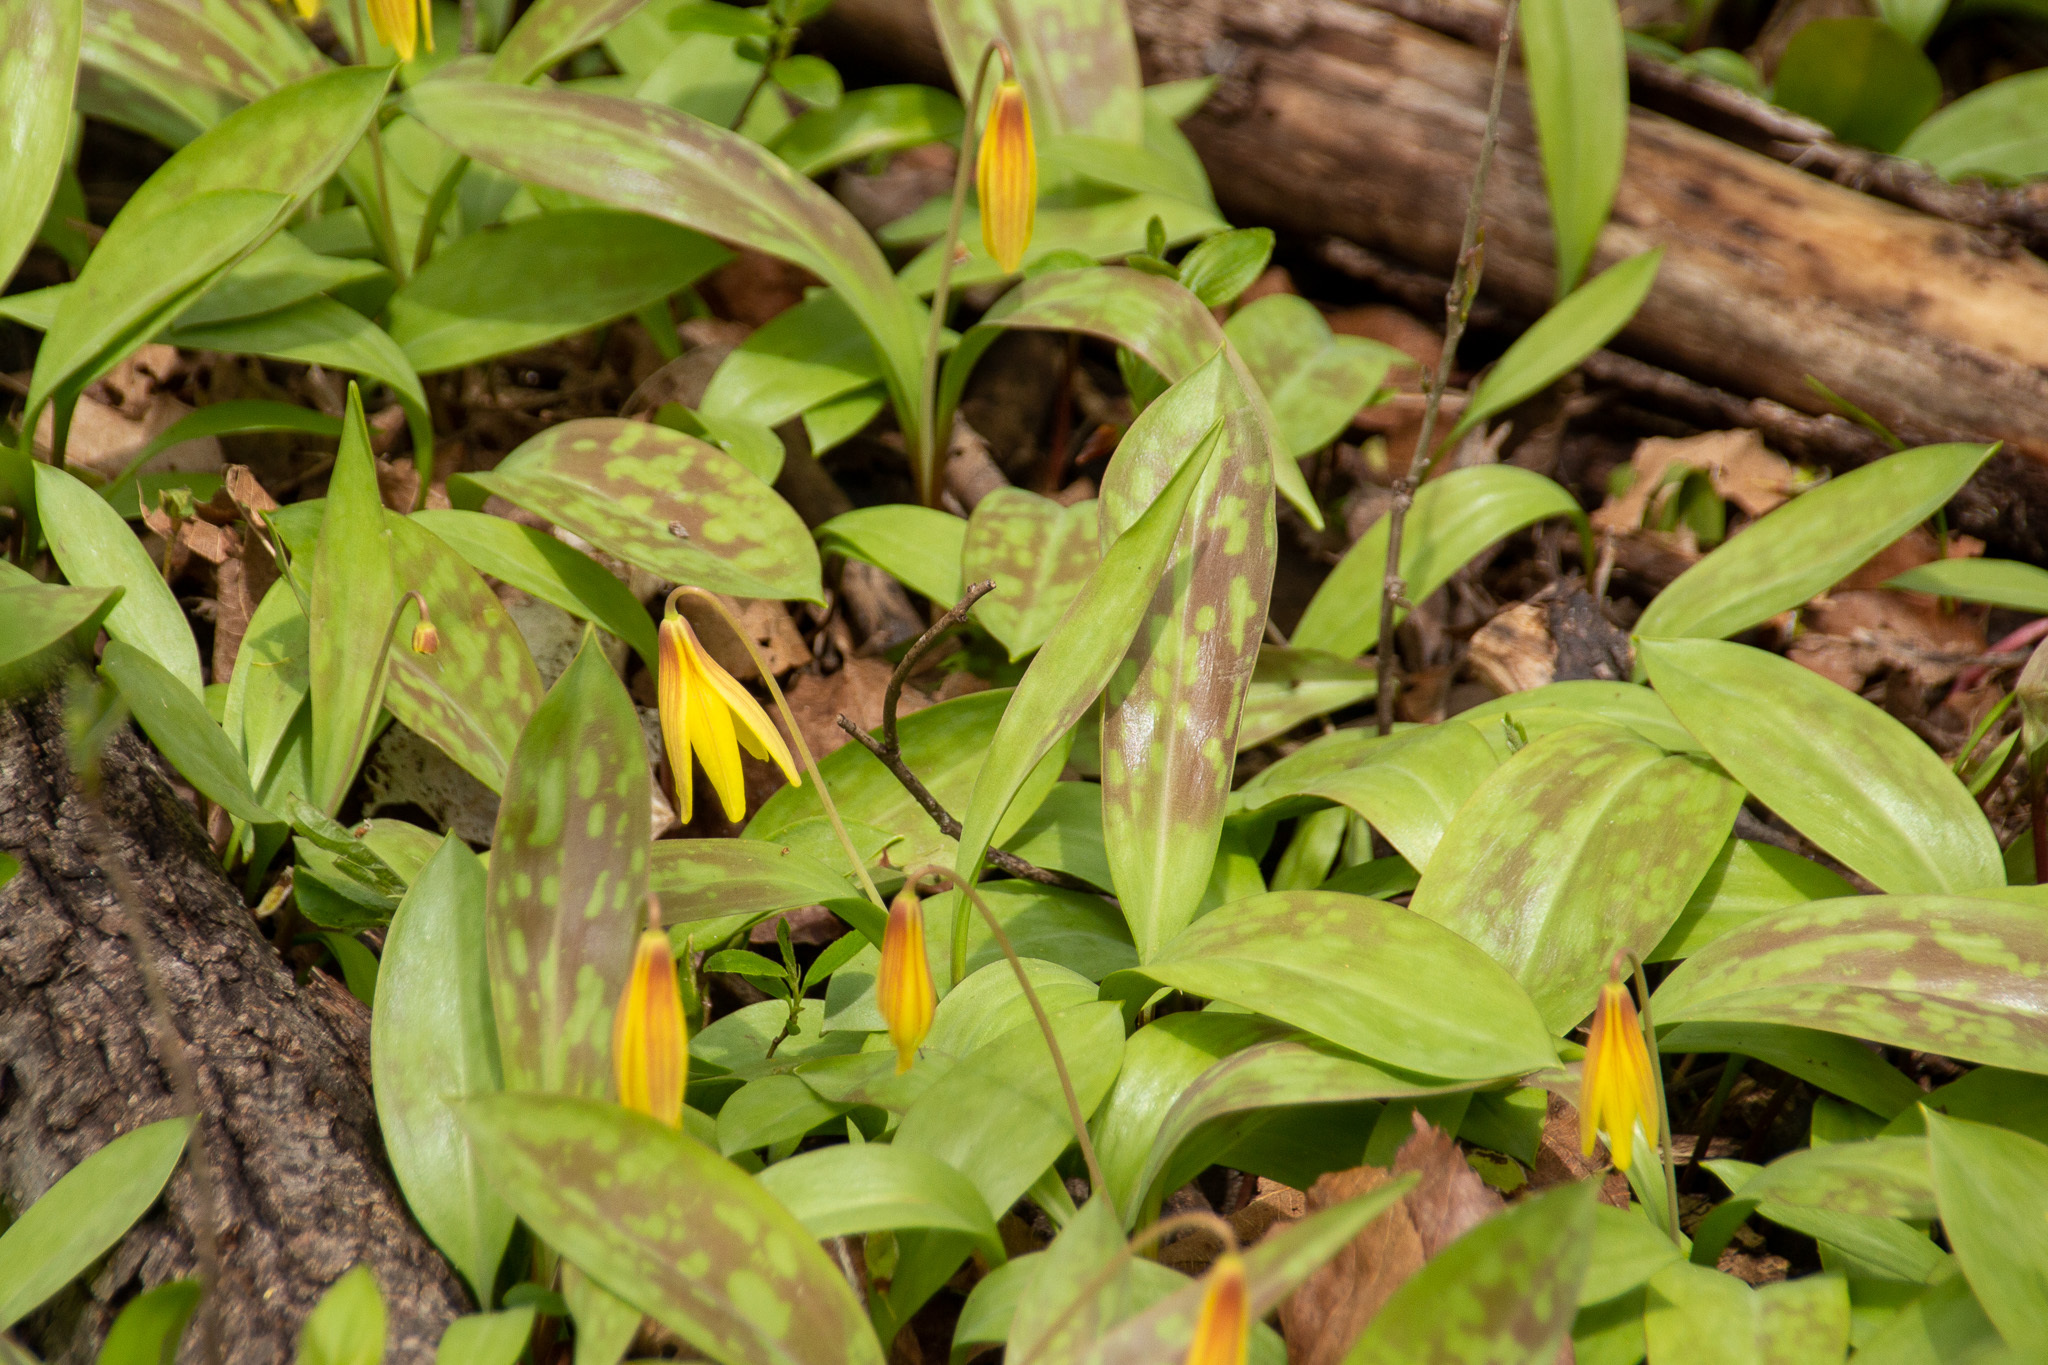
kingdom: Plantae
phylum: Tracheophyta
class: Liliopsida
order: Liliales
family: Liliaceae
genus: Erythronium
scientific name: Erythronium americanum
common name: Yellow adder's-tongue
